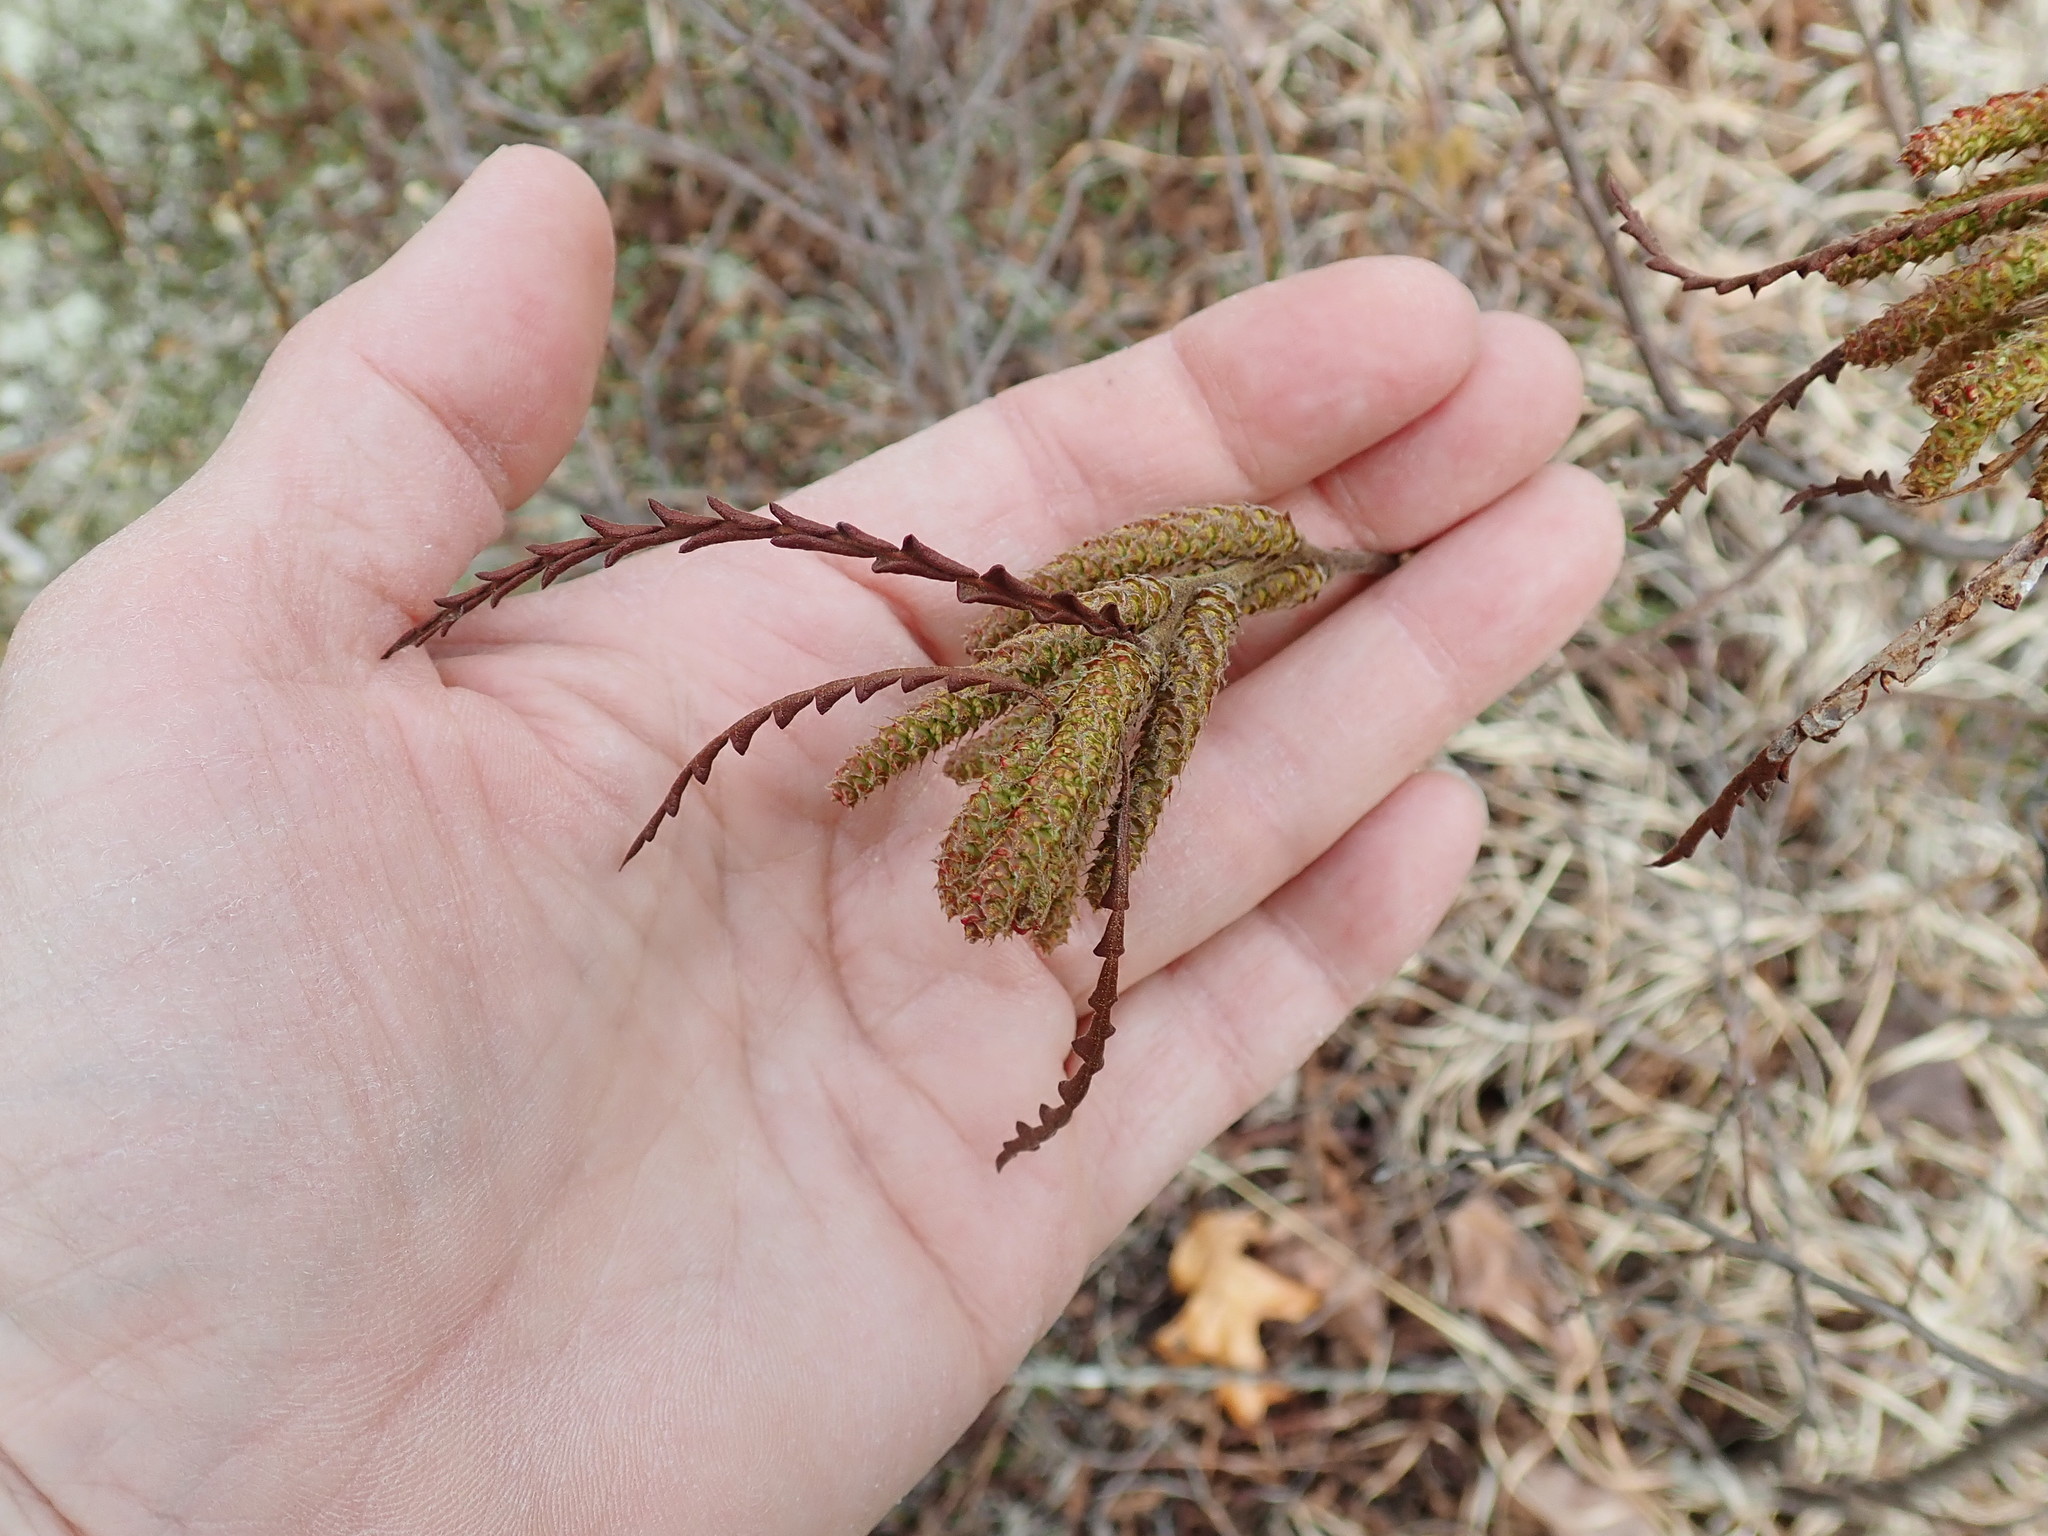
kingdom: Plantae
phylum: Tracheophyta
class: Magnoliopsida
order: Fagales
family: Myricaceae
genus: Comptonia
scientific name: Comptonia peregrina
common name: Sweet-fern
